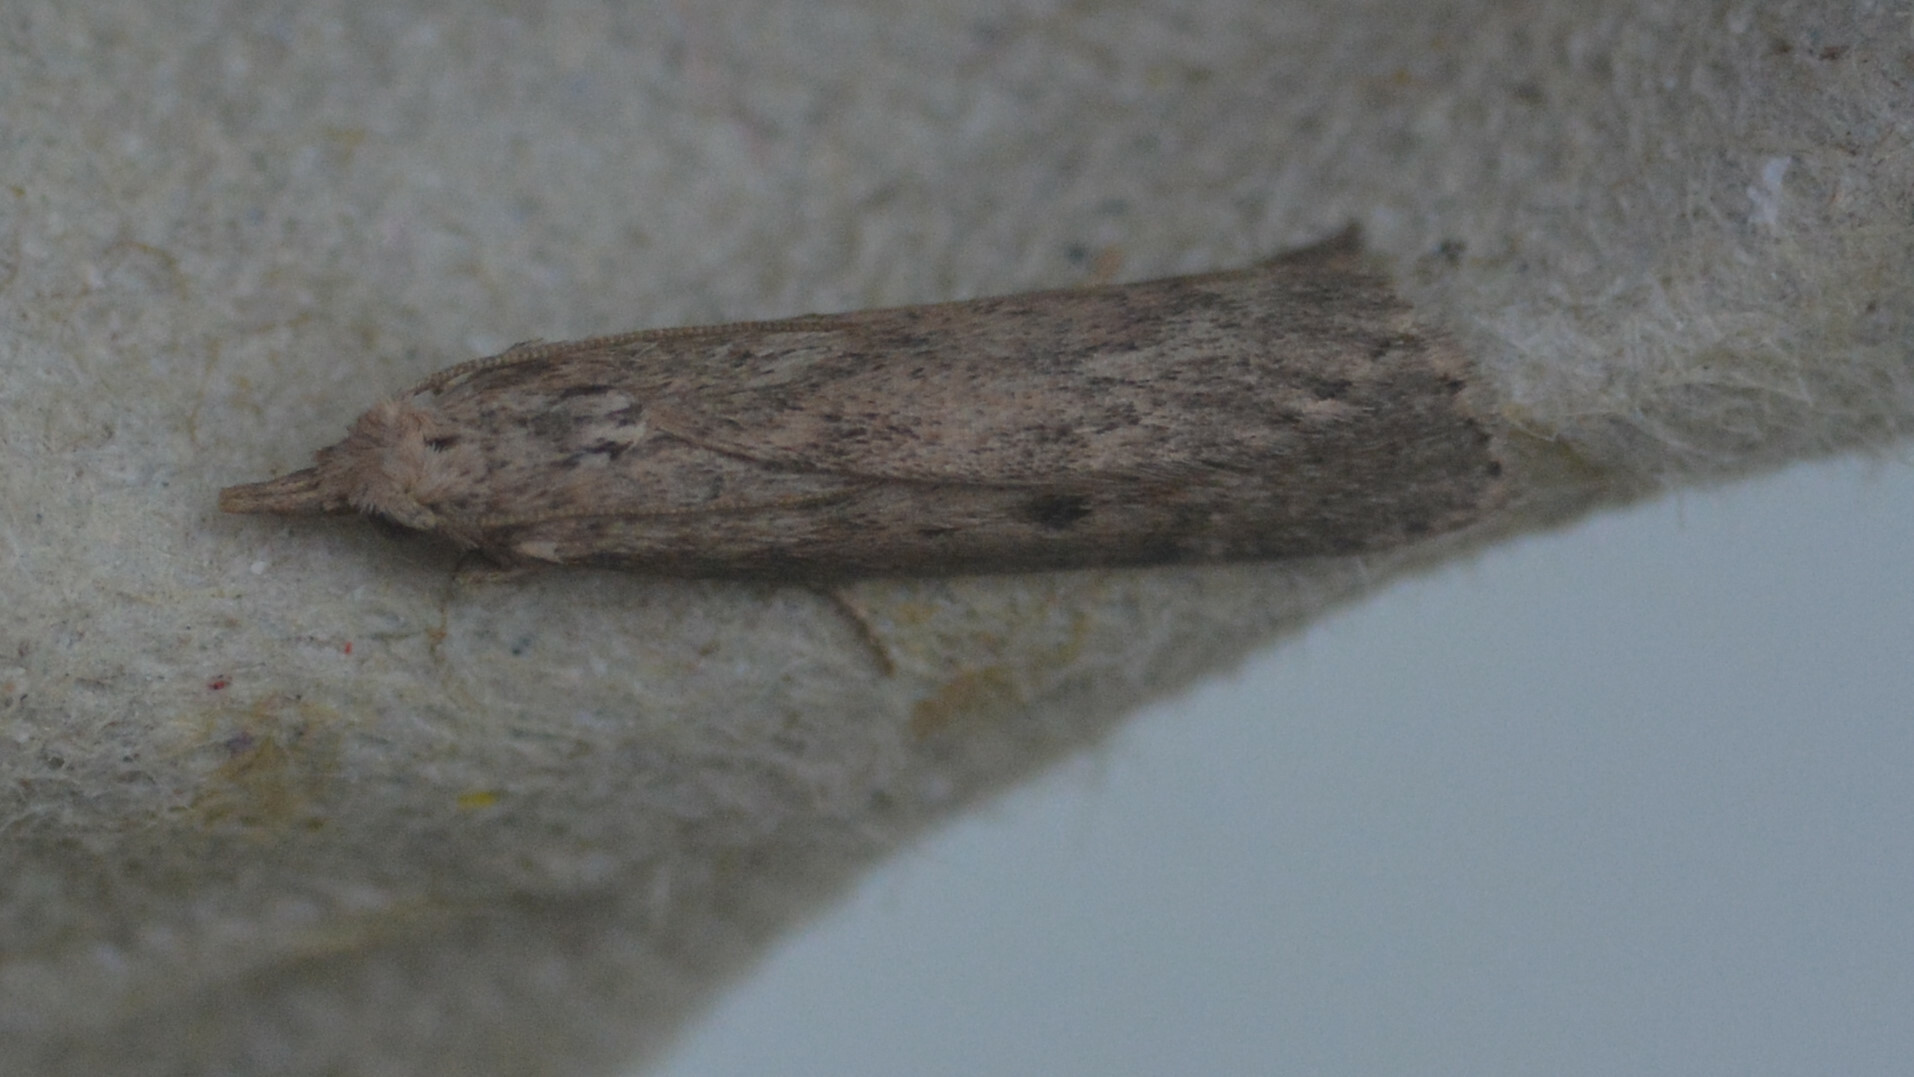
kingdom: Animalia
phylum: Arthropoda
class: Insecta
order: Lepidoptera
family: Pyralidae
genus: Aphomia
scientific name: Aphomia sociella
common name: Bee moth
